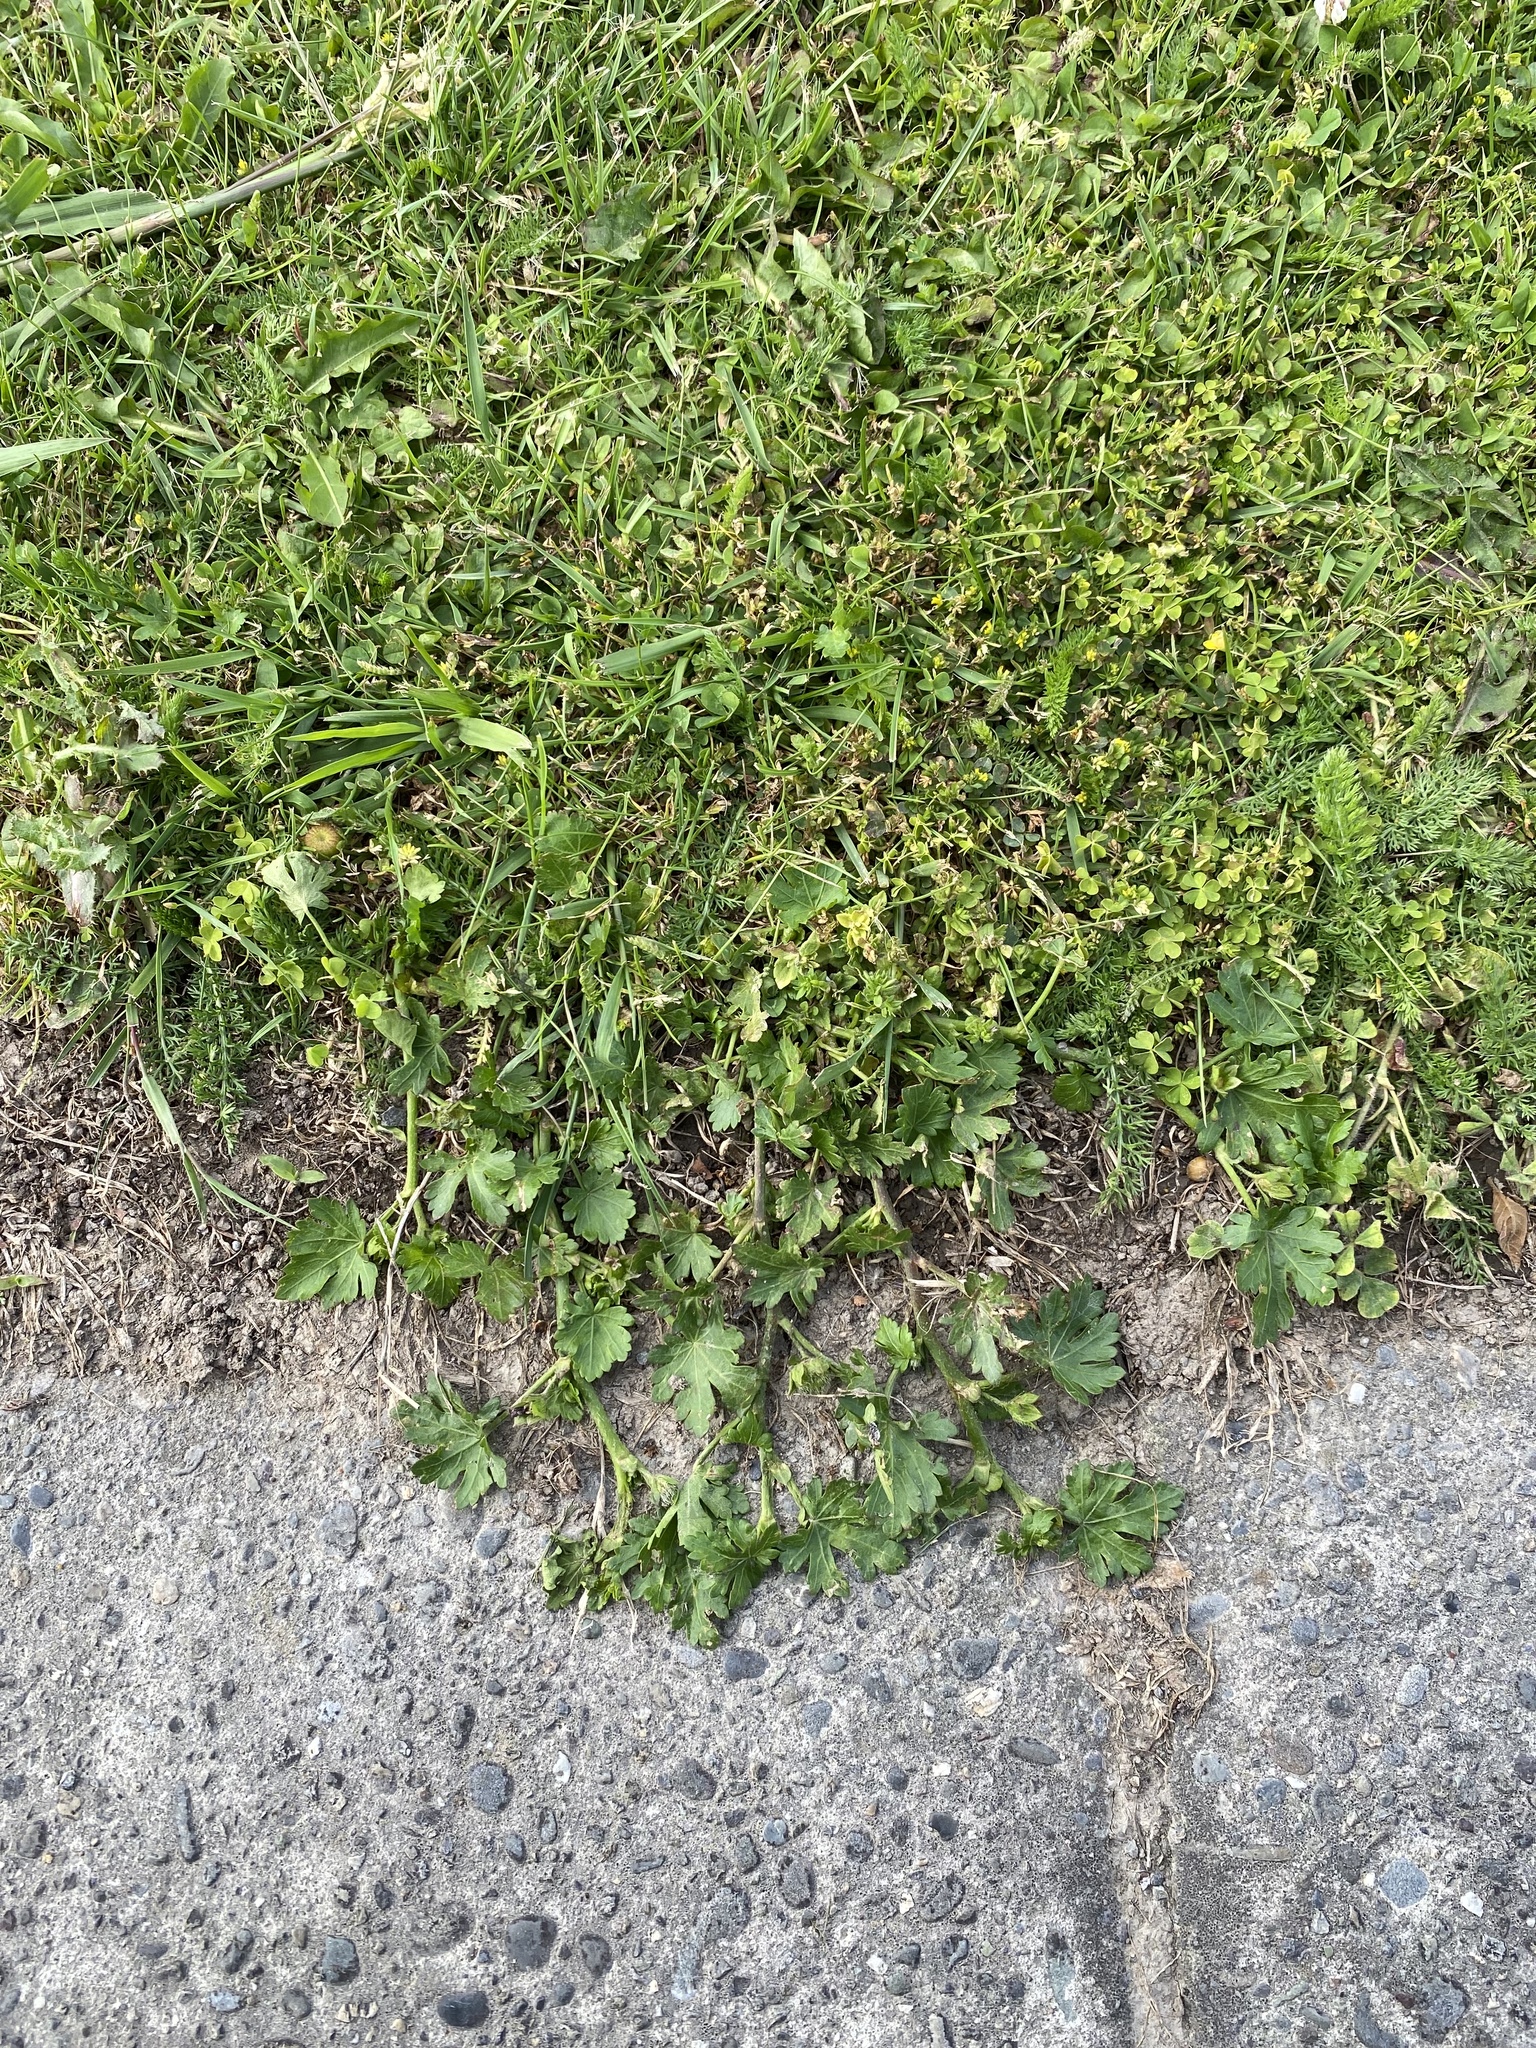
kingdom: Plantae
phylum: Tracheophyta
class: Magnoliopsida
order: Malvales
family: Malvaceae
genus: Modiola
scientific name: Modiola caroliniana
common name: Carolina bristlemallow
